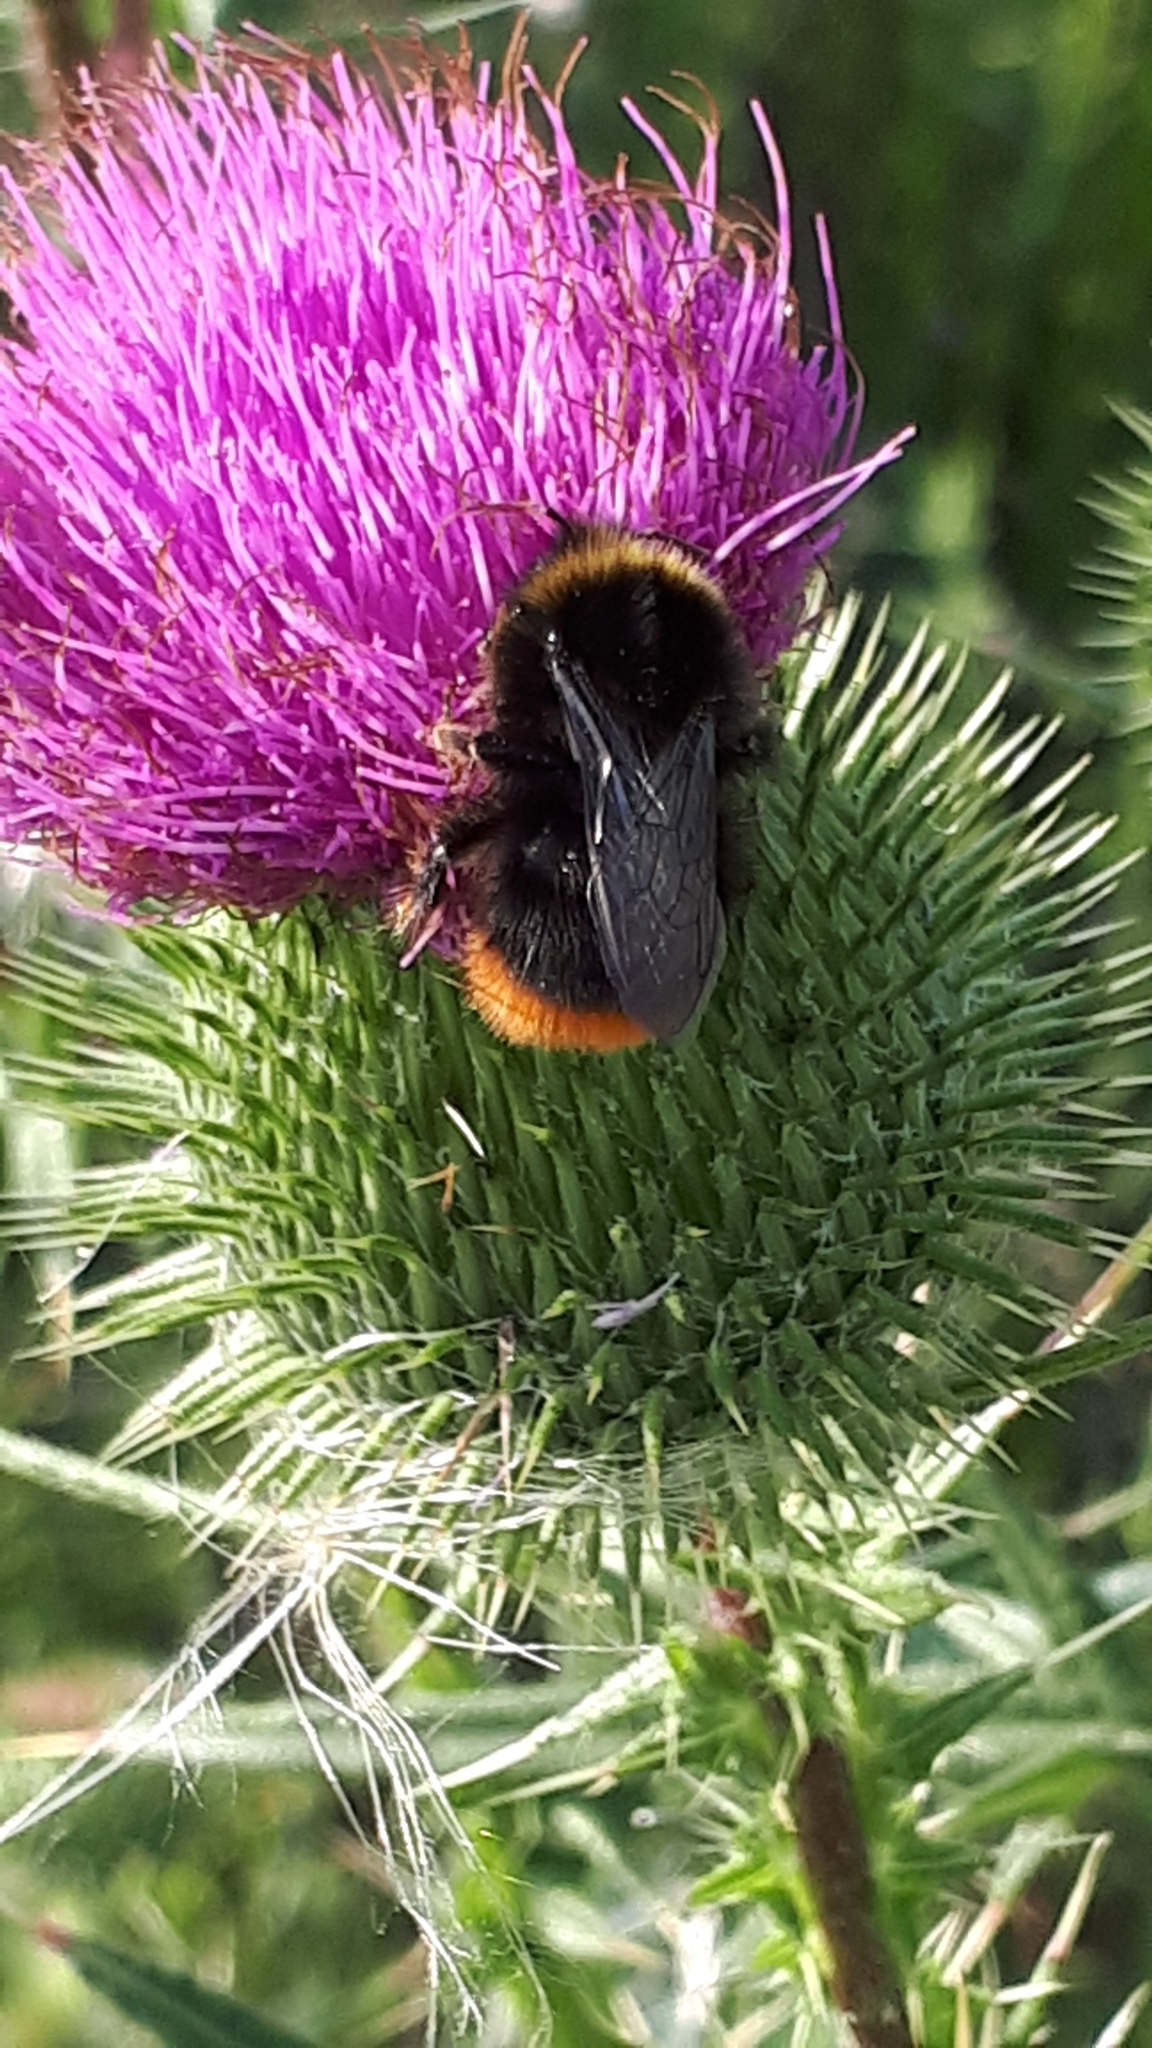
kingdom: Animalia
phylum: Arthropoda
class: Insecta
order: Hymenoptera
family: Apidae
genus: Bombus
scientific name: Bombus lapidarius
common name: Large red-tailed humble-bee
